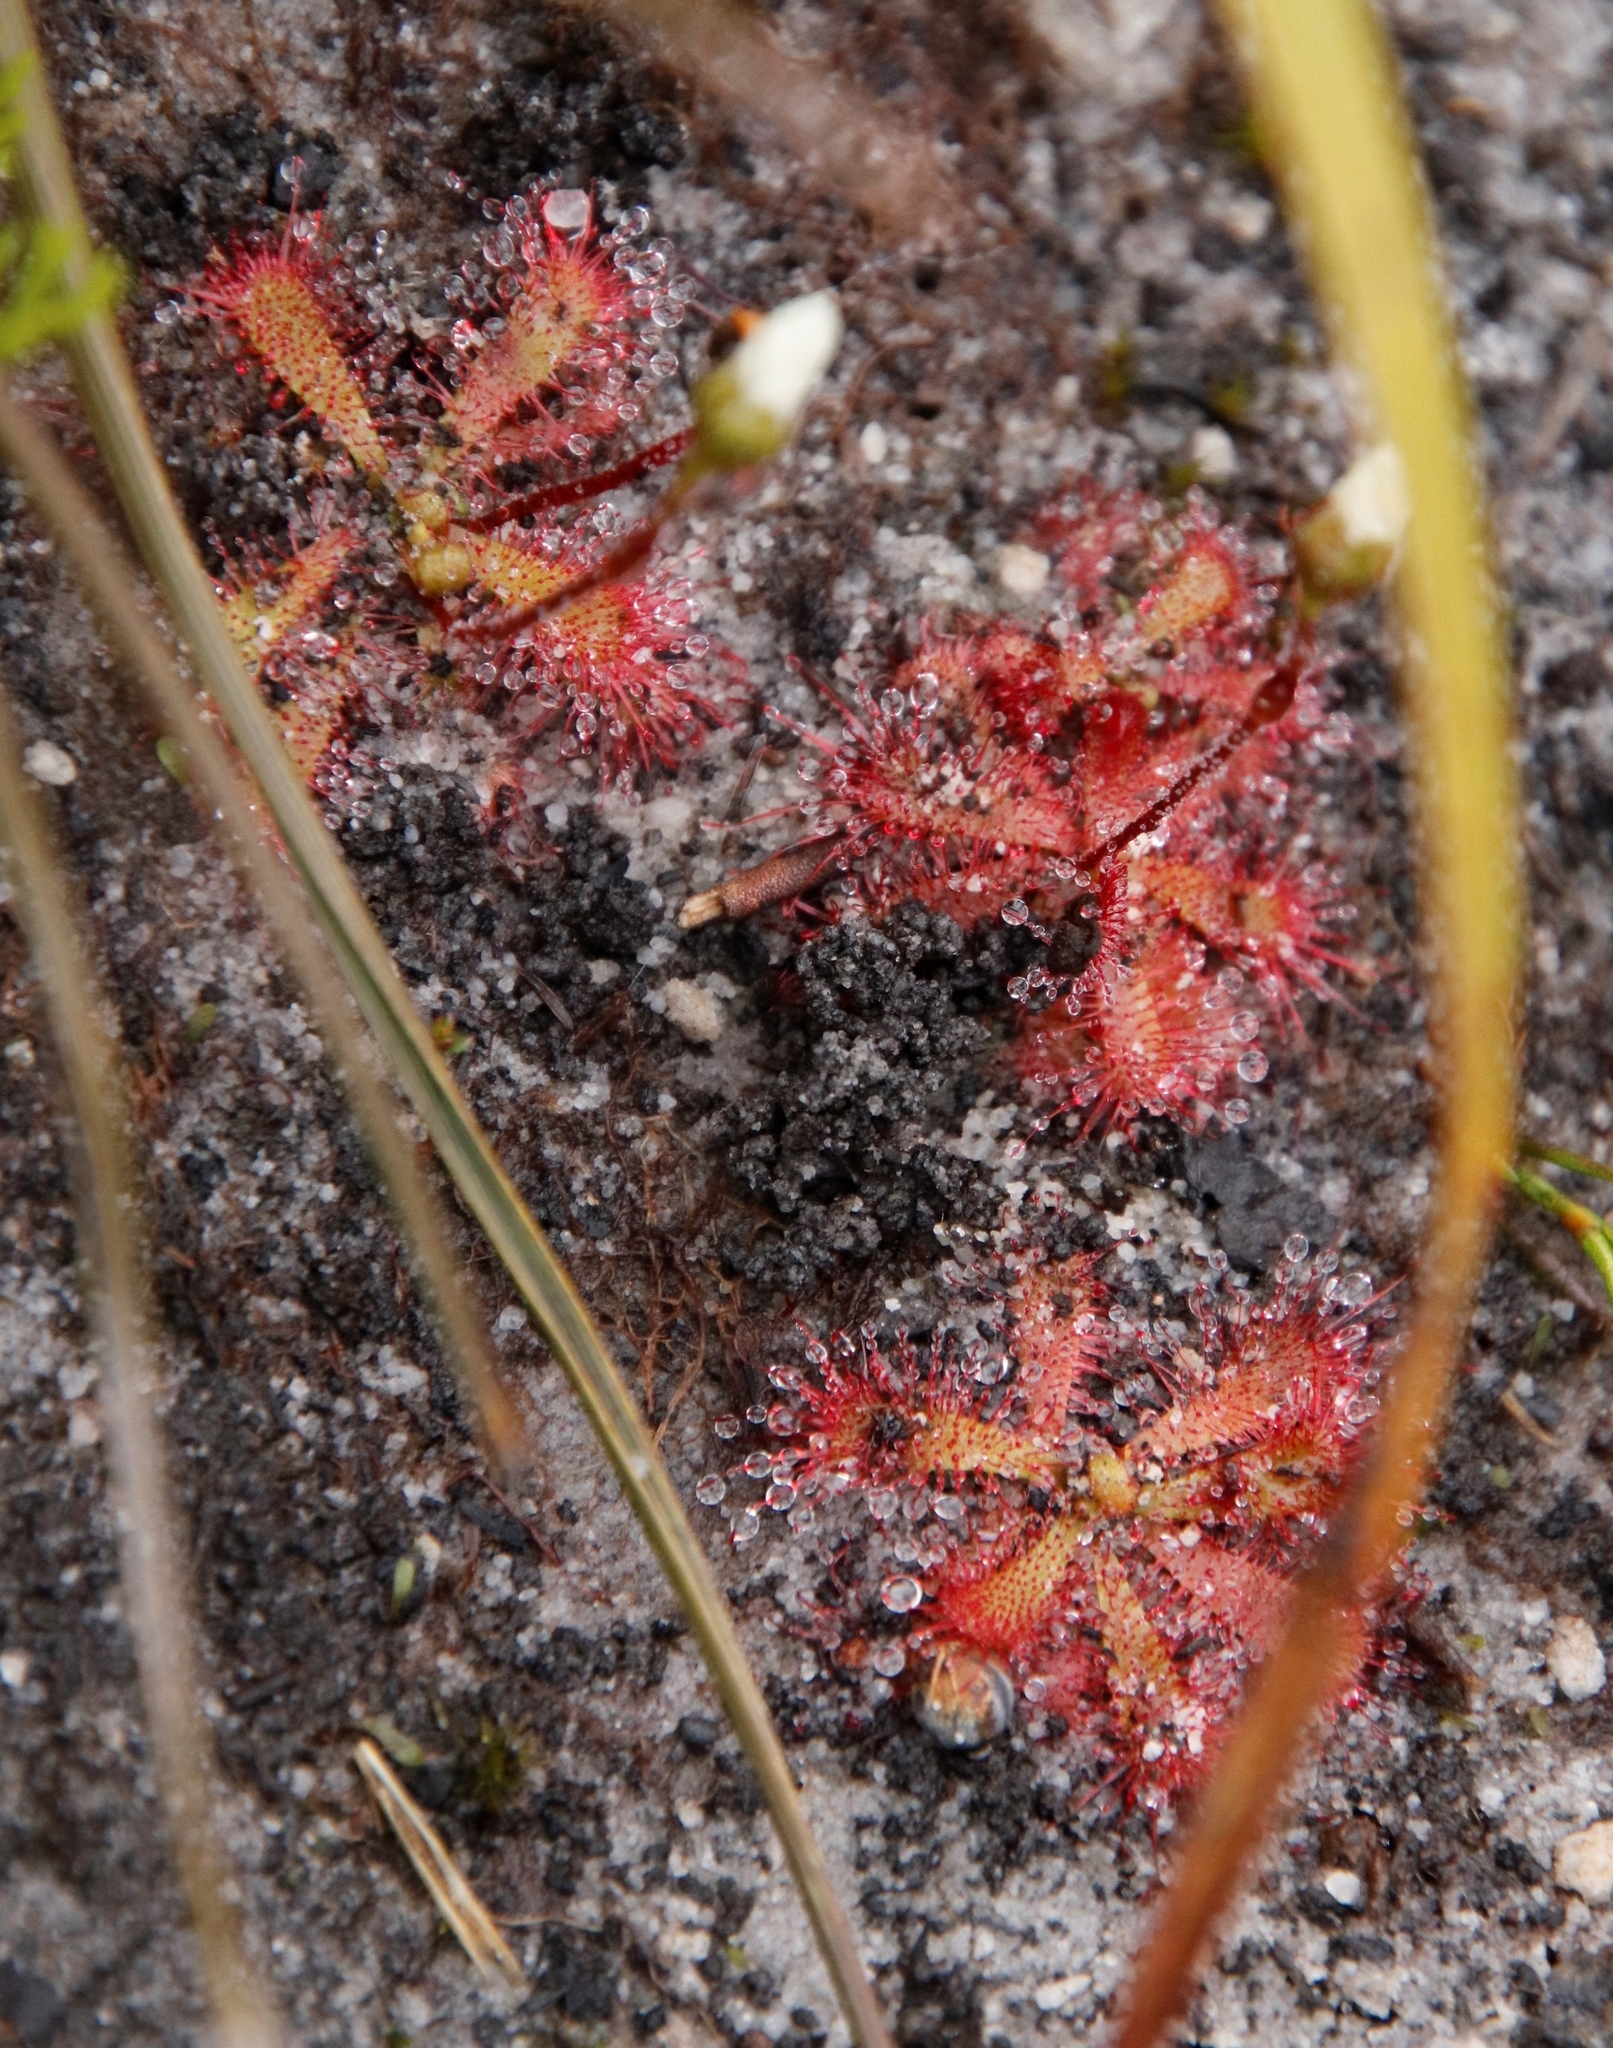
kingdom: Plantae
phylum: Tracheophyta
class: Magnoliopsida
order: Caryophyllales
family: Droseraceae
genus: Drosera
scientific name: Drosera trinervia
